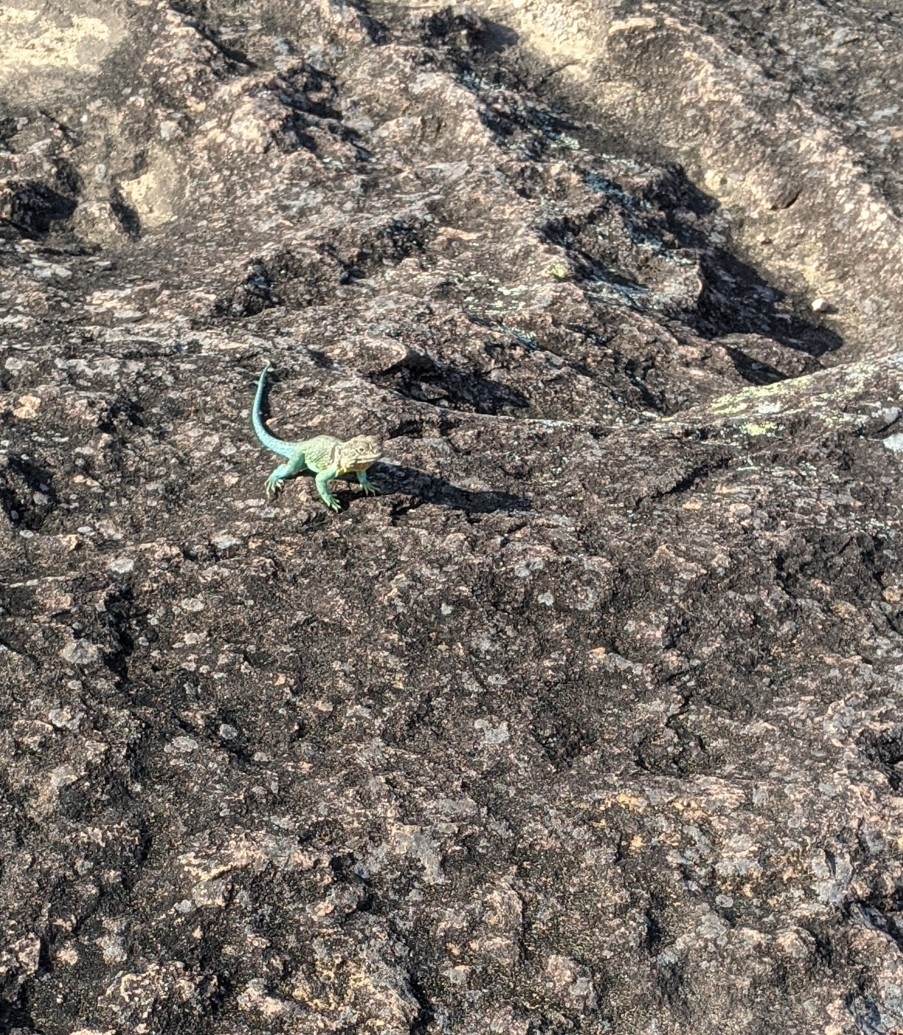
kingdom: Animalia
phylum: Chordata
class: Squamata
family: Crotaphytidae
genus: Crotaphytus
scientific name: Crotaphytus collaris
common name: Collared lizard
